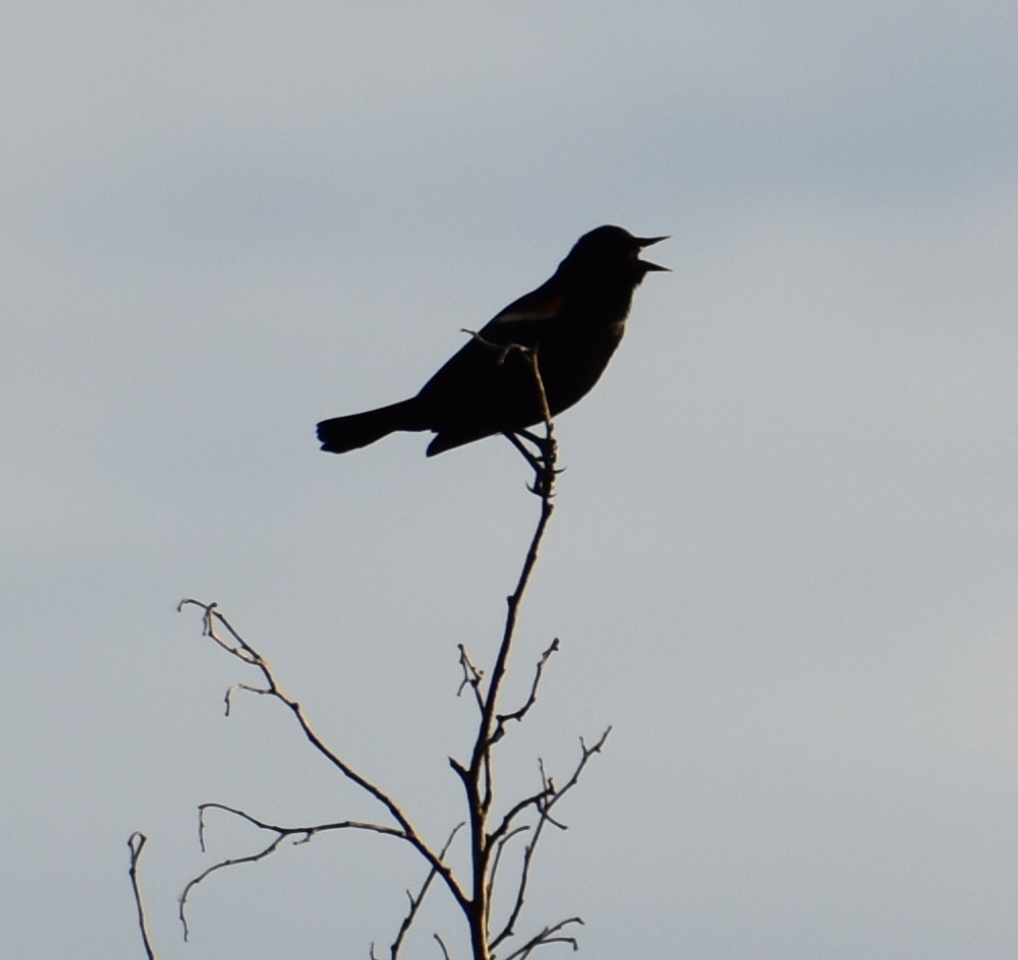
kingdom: Animalia
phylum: Chordata
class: Aves
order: Passeriformes
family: Icteridae
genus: Agelaius
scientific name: Agelaius phoeniceus
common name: Red-winged blackbird
